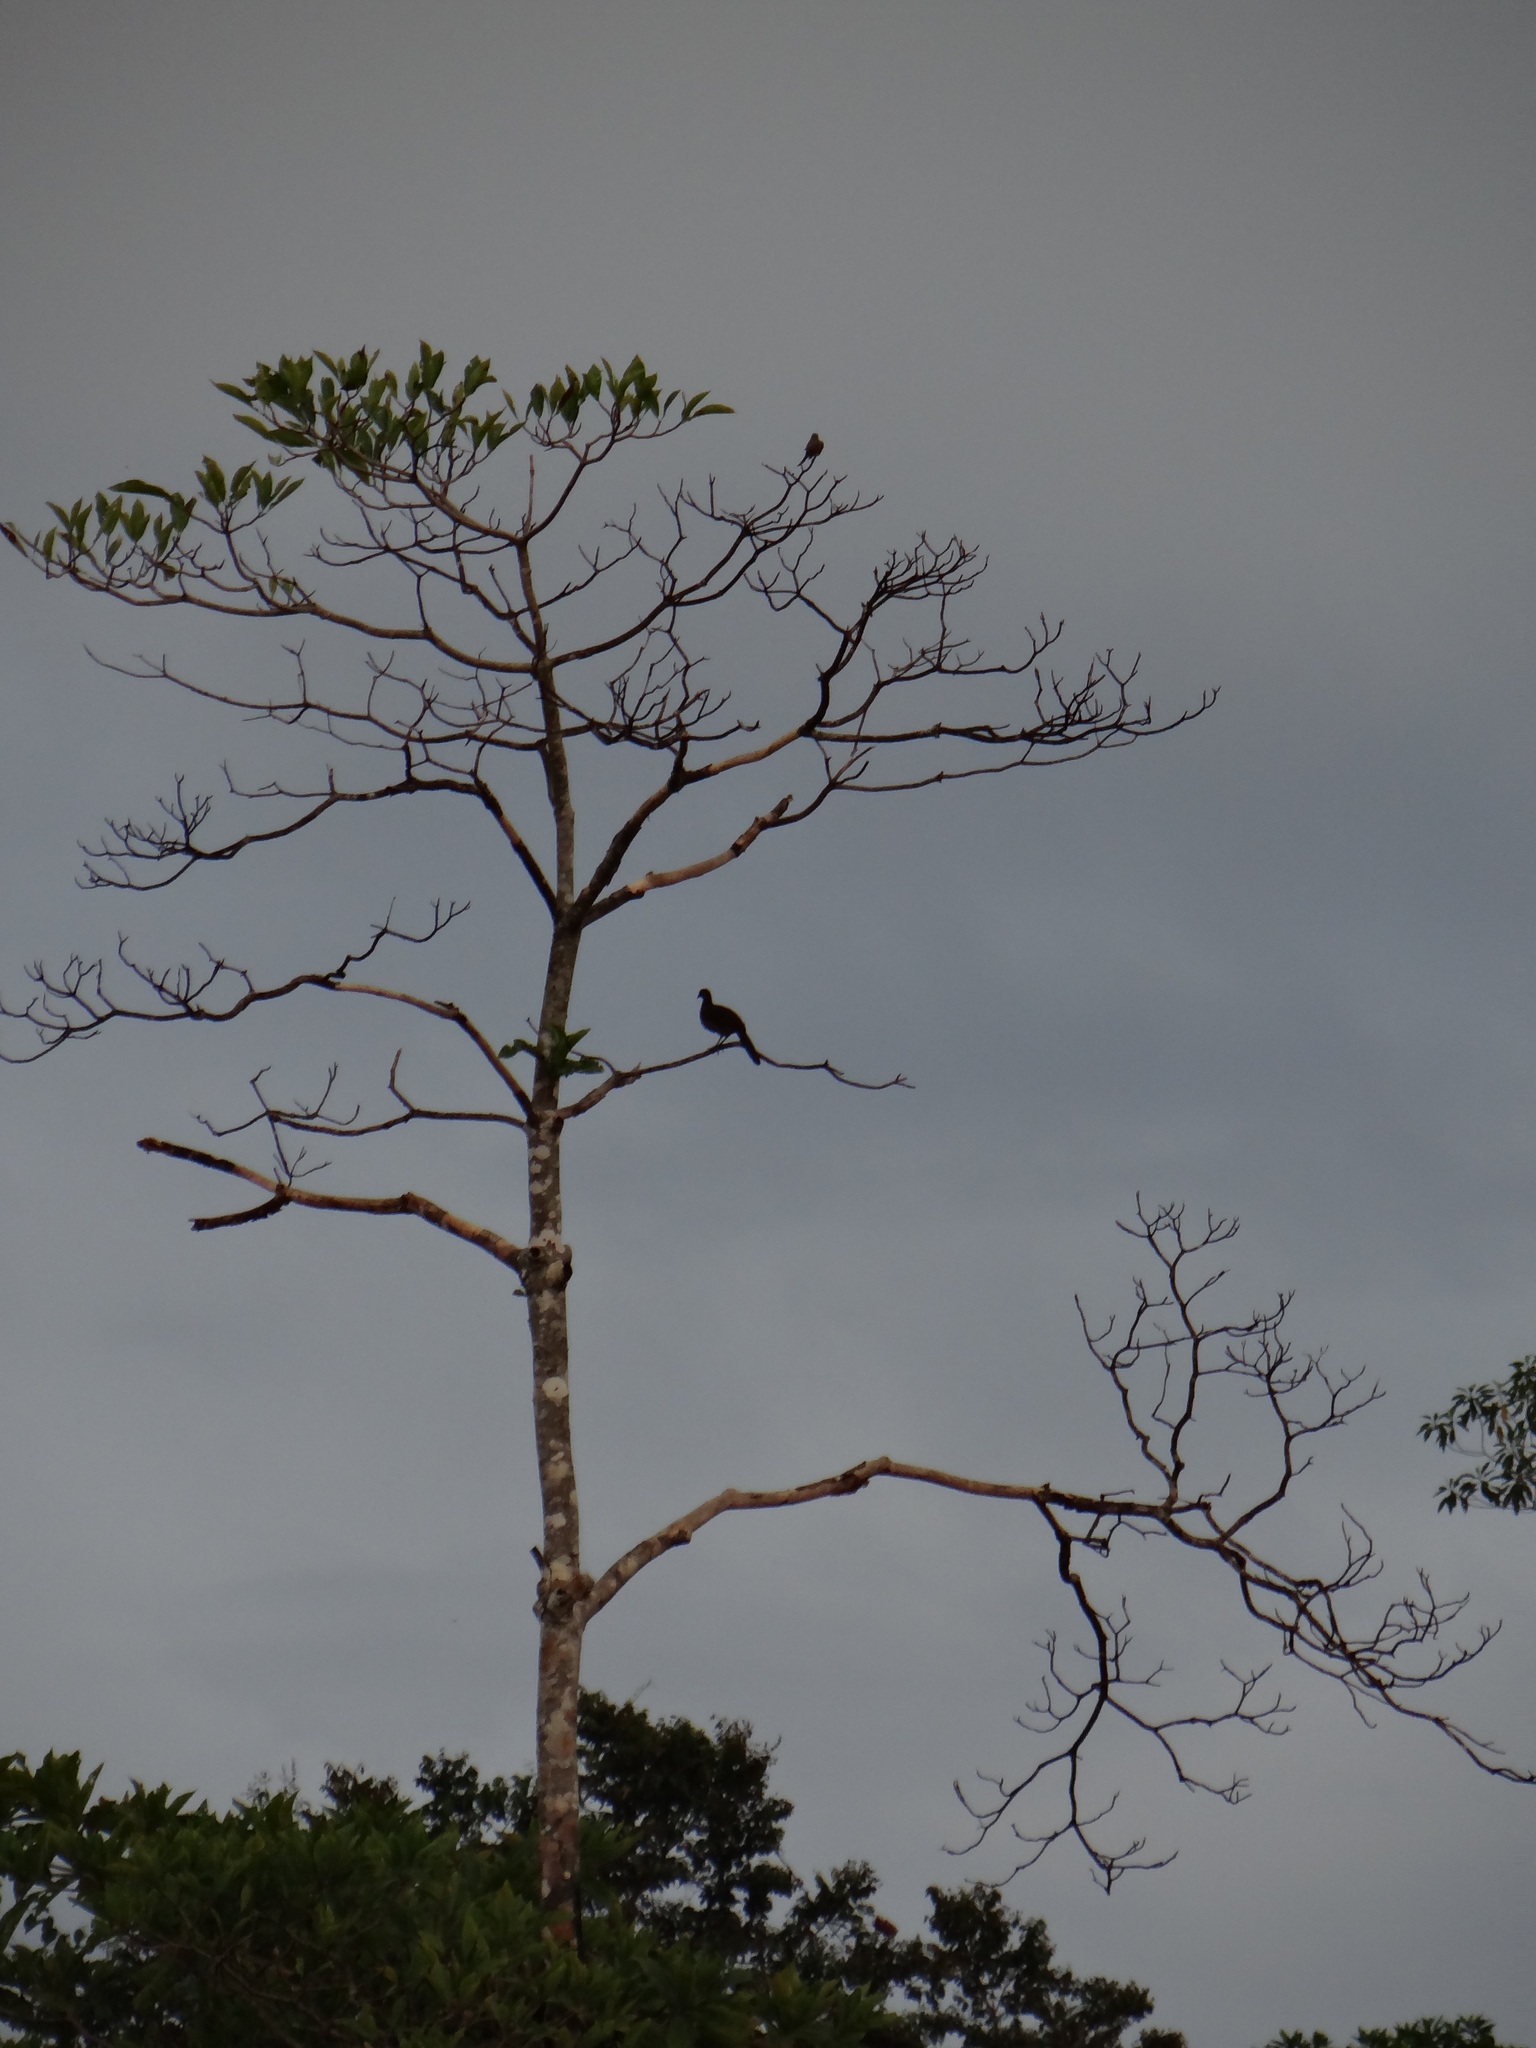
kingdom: Animalia
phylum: Chordata
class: Aves
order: Galliformes
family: Cracidae
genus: Ortalis
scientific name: Ortalis guttata
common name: Speckled chachalaca
